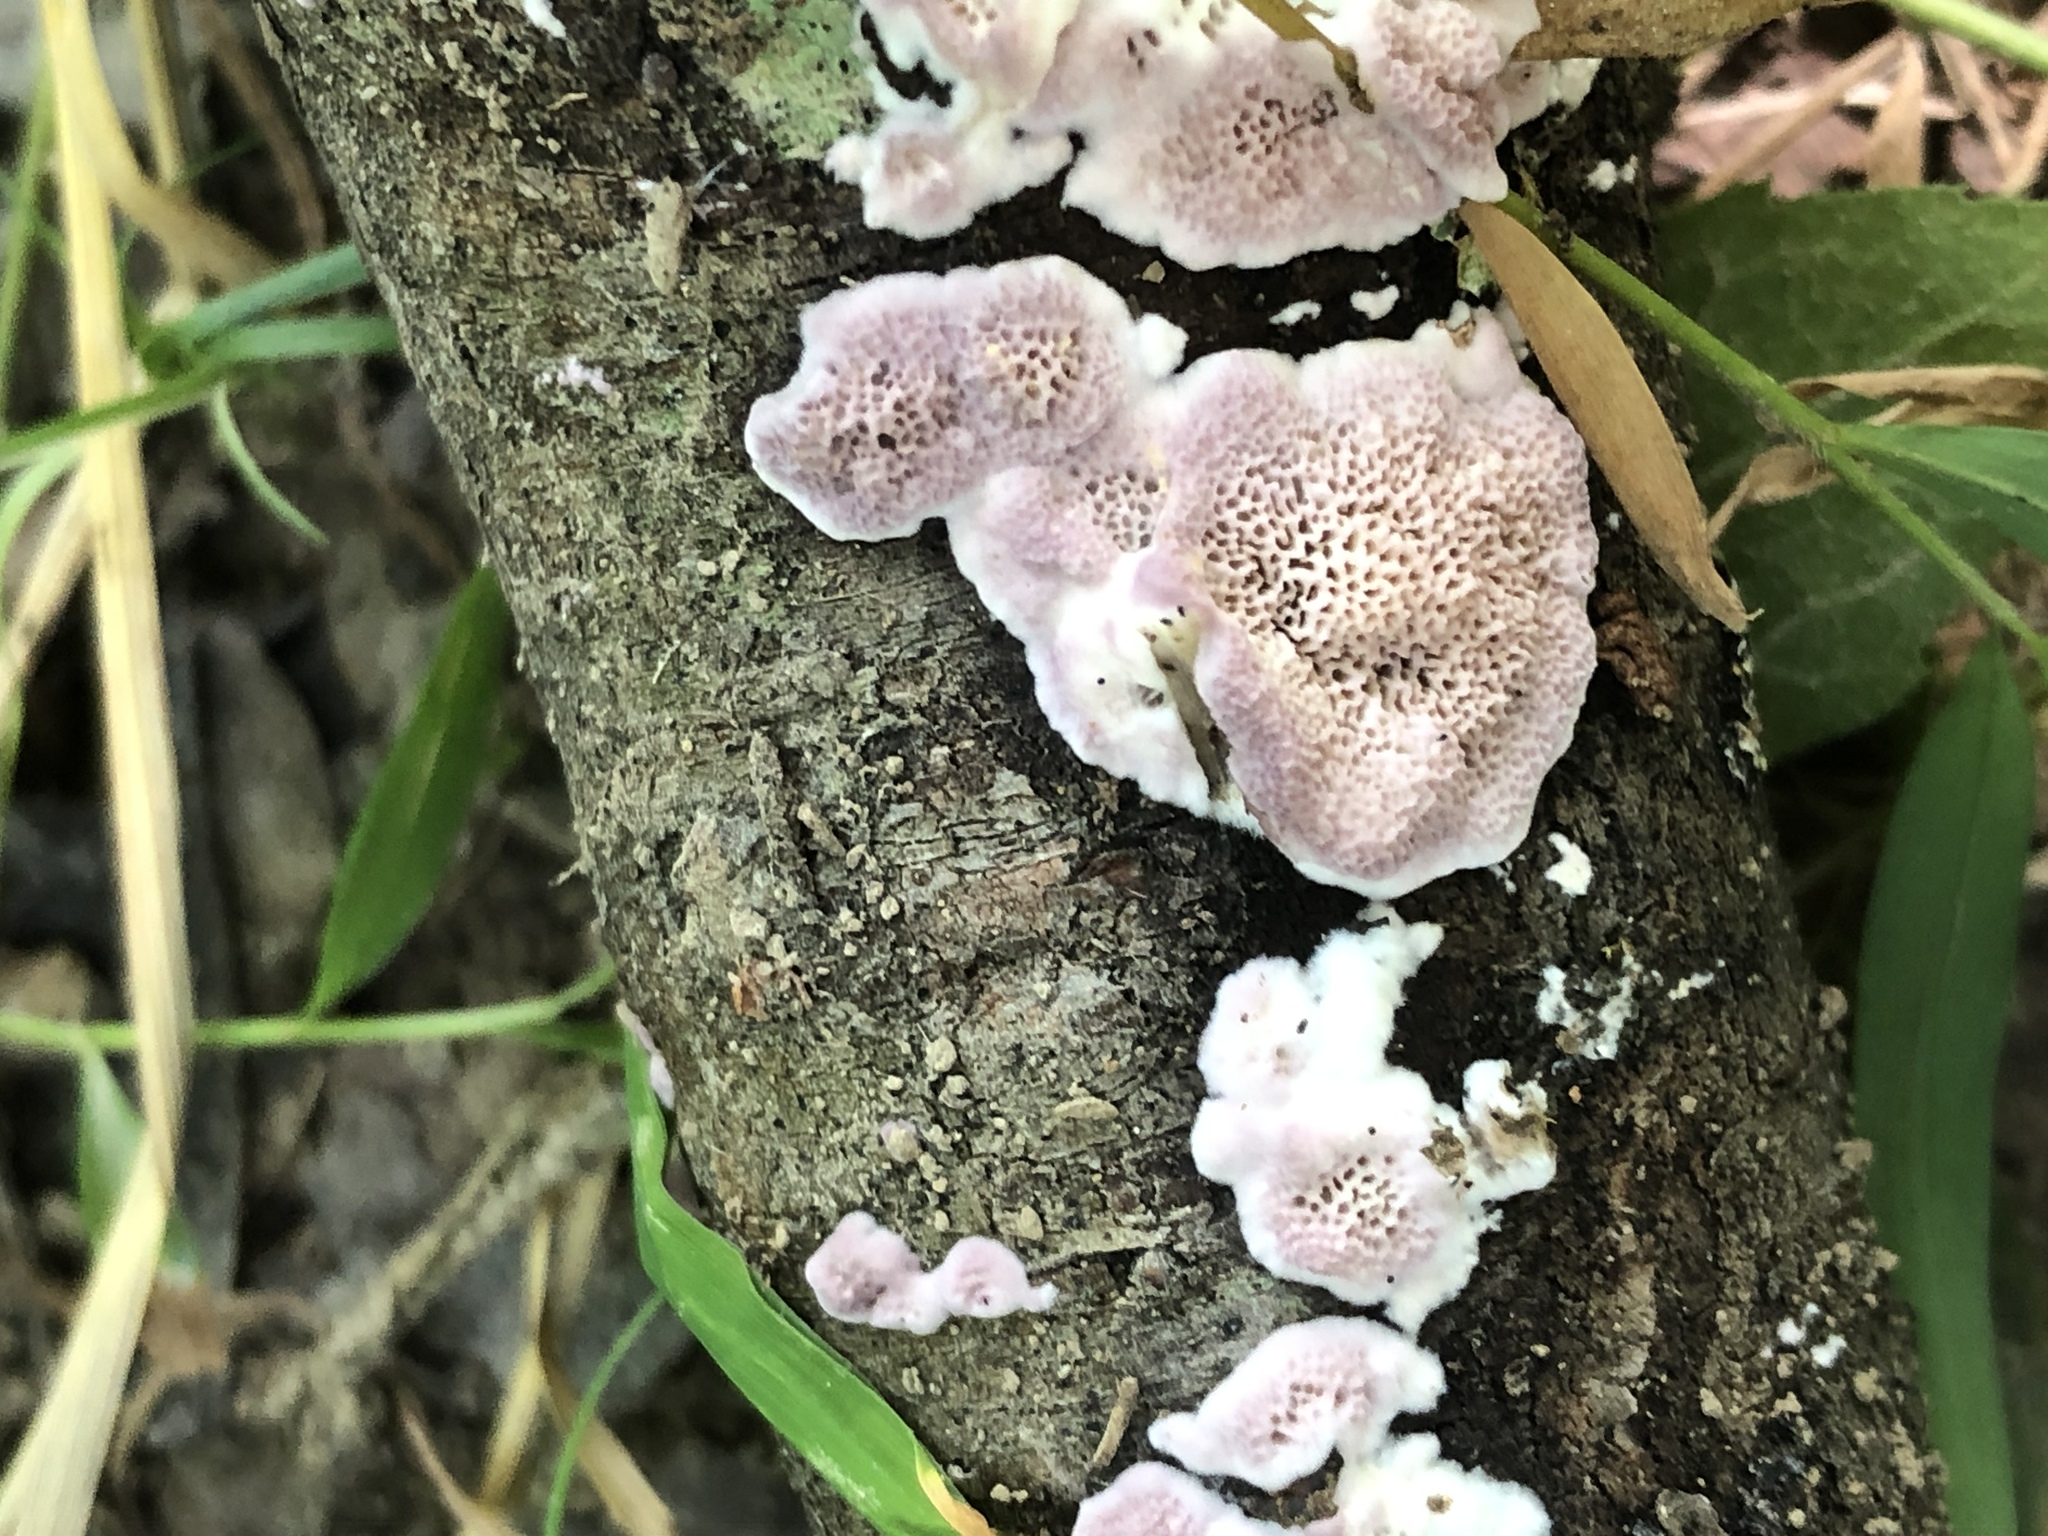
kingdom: Fungi
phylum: Basidiomycota
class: Agaricomycetes
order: Hymenochaetales
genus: Trichaptum
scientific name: Trichaptum abietinum
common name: Purplepore bracket
